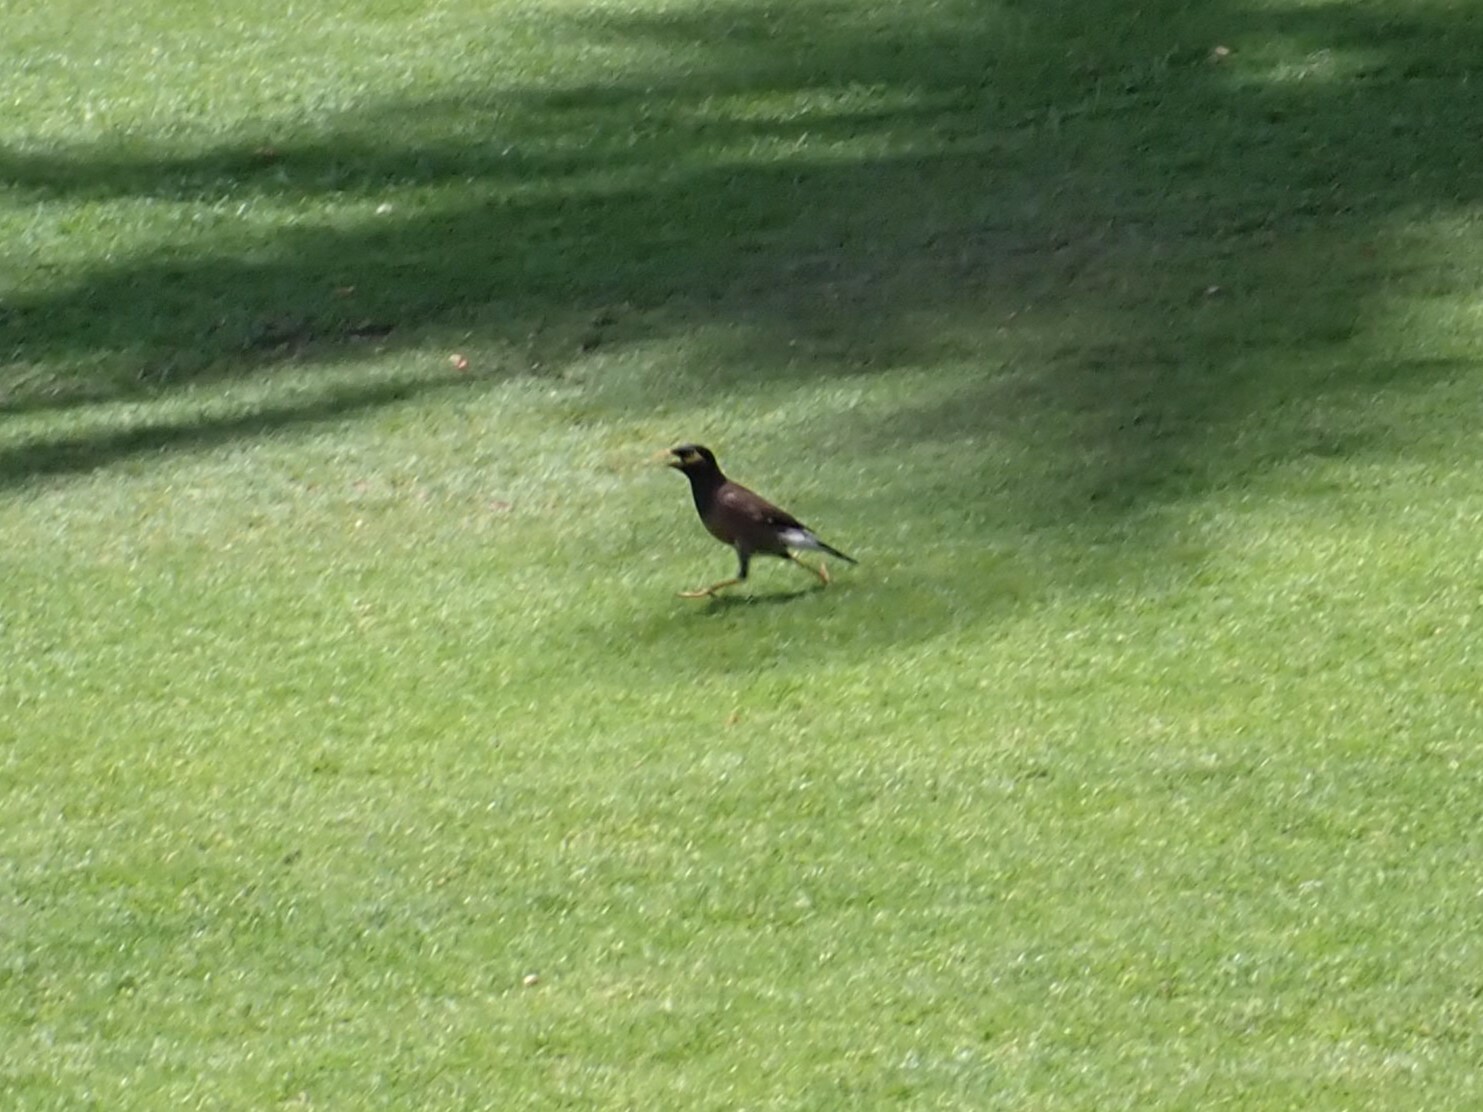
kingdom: Animalia
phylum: Chordata
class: Aves
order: Passeriformes
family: Sturnidae
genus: Acridotheres
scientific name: Acridotheres tristis
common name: Common myna
